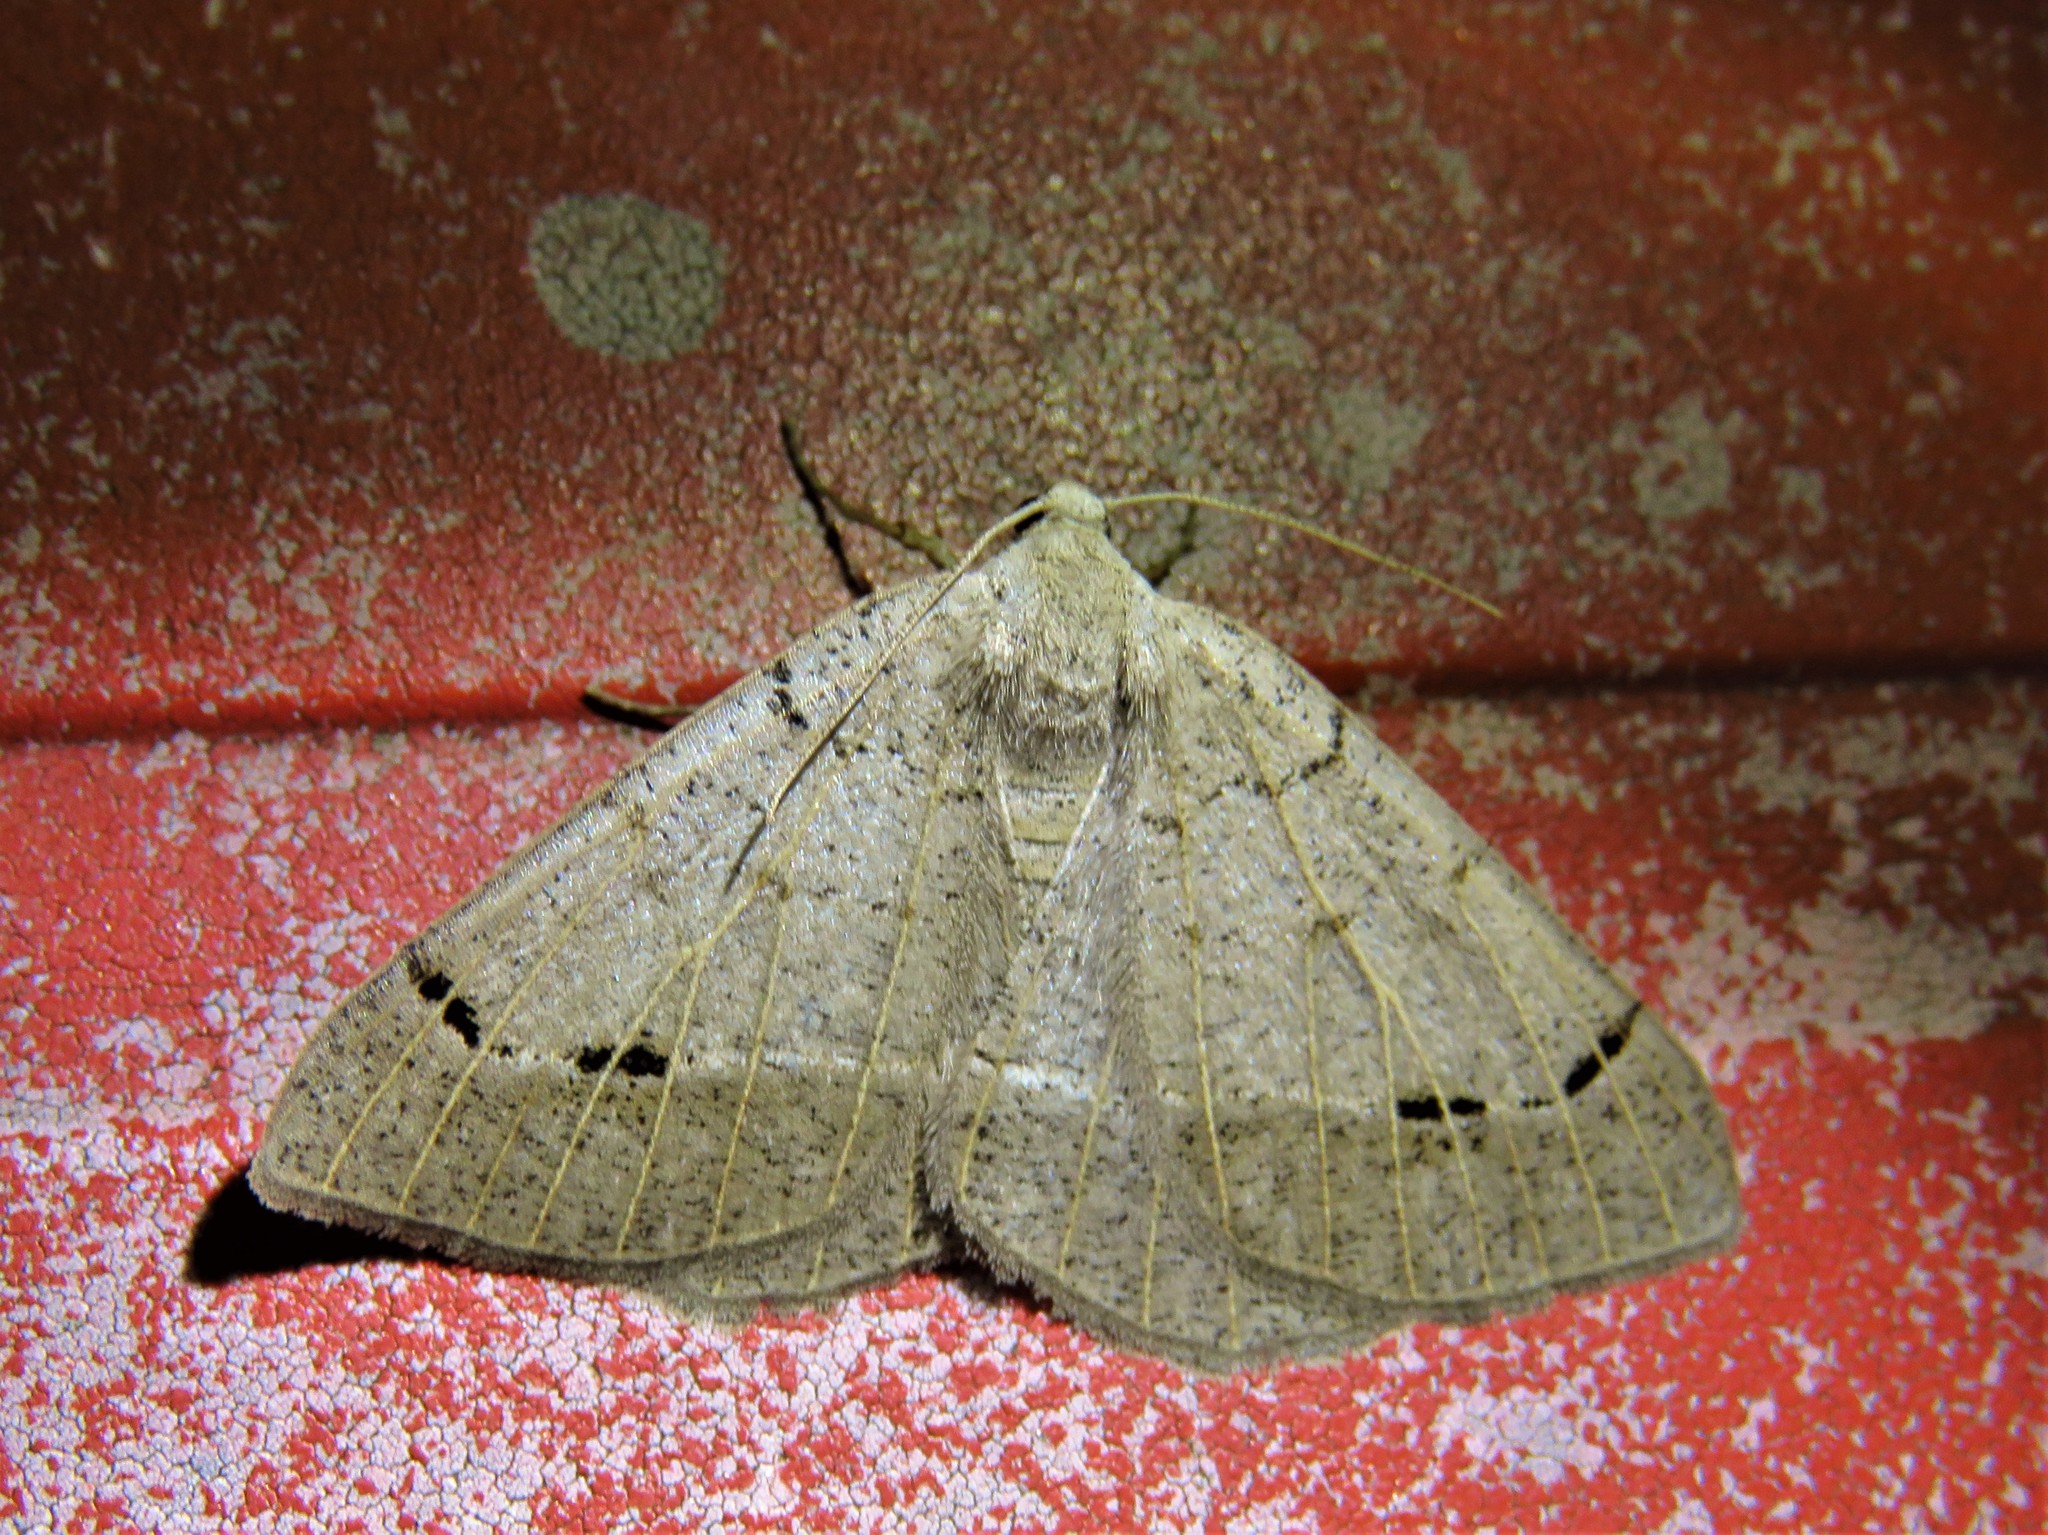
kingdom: Animalia
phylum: Arthropoda
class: Insecta
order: Lepidoptera
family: Geometridae
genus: Isturgia
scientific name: Isturgia dislocaria
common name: Pale-viened enconista
